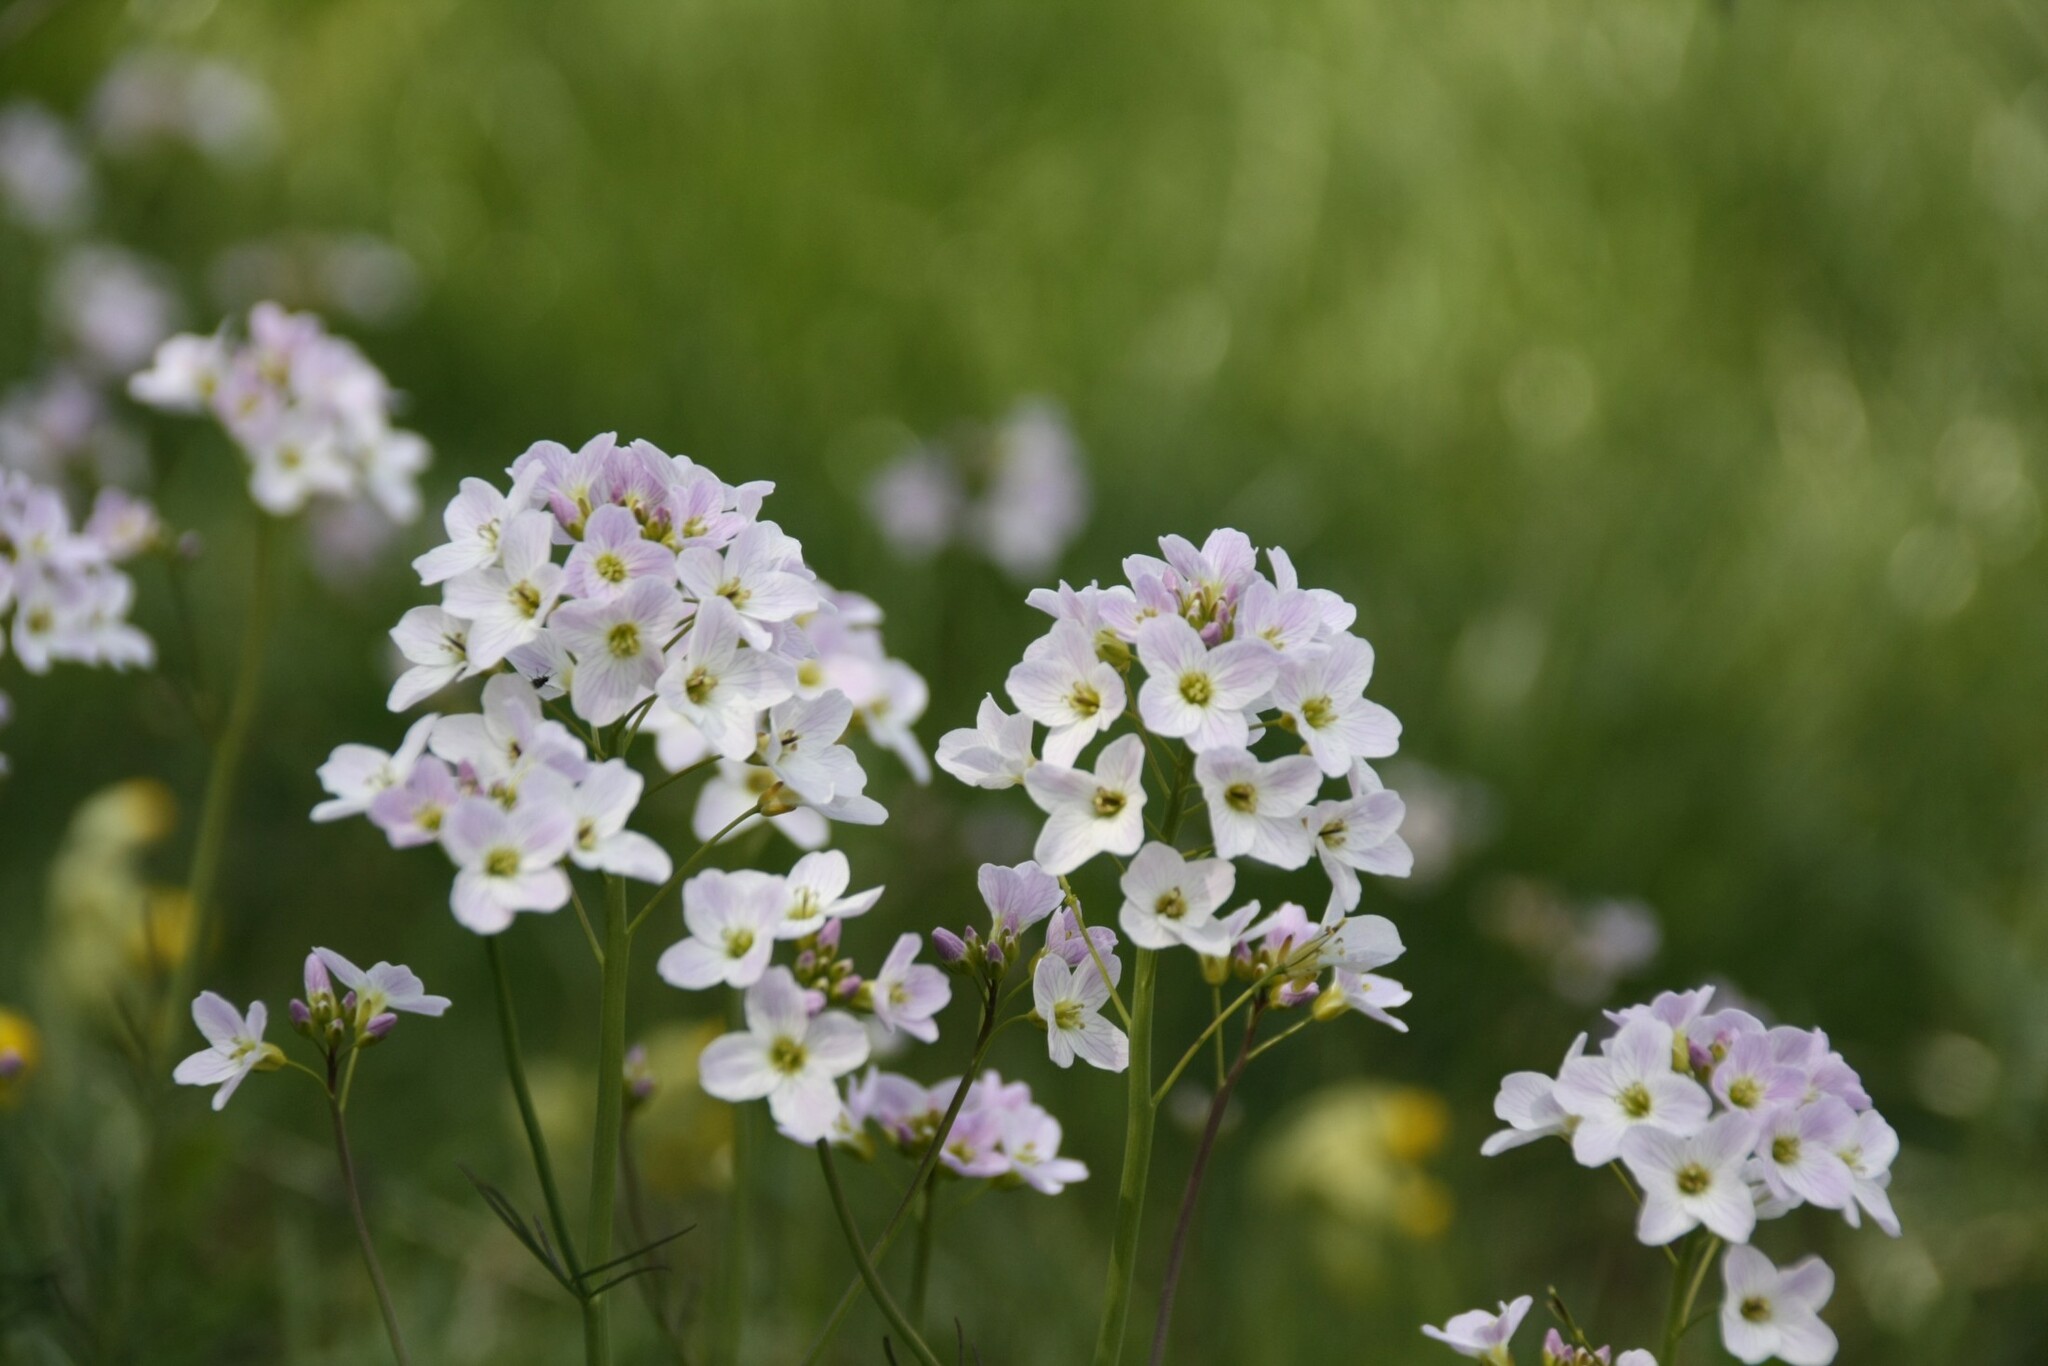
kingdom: Plantae
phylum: Tracheophyta
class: Magnoliopsida
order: Brassicales
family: Brassicaceae
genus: Cardamine
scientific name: Cardamine pratensis
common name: Cuckoo flower
